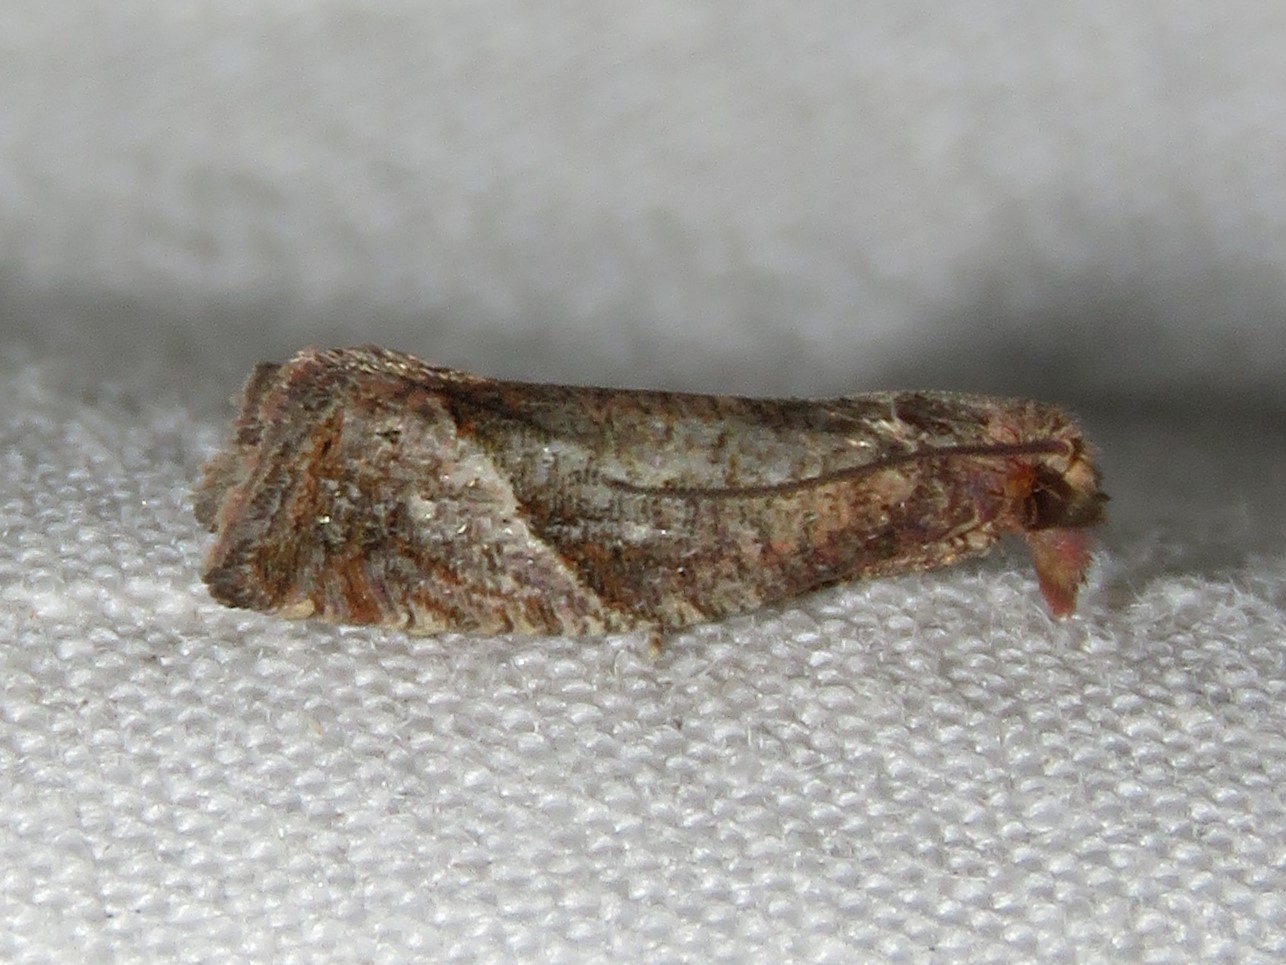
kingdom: Animalia
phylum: Arthropoda
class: Insecta
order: Lepidoptera
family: Tortricidae
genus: Pelochrista
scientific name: Pelochrista derelicta
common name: Derelict pelochrista moth
